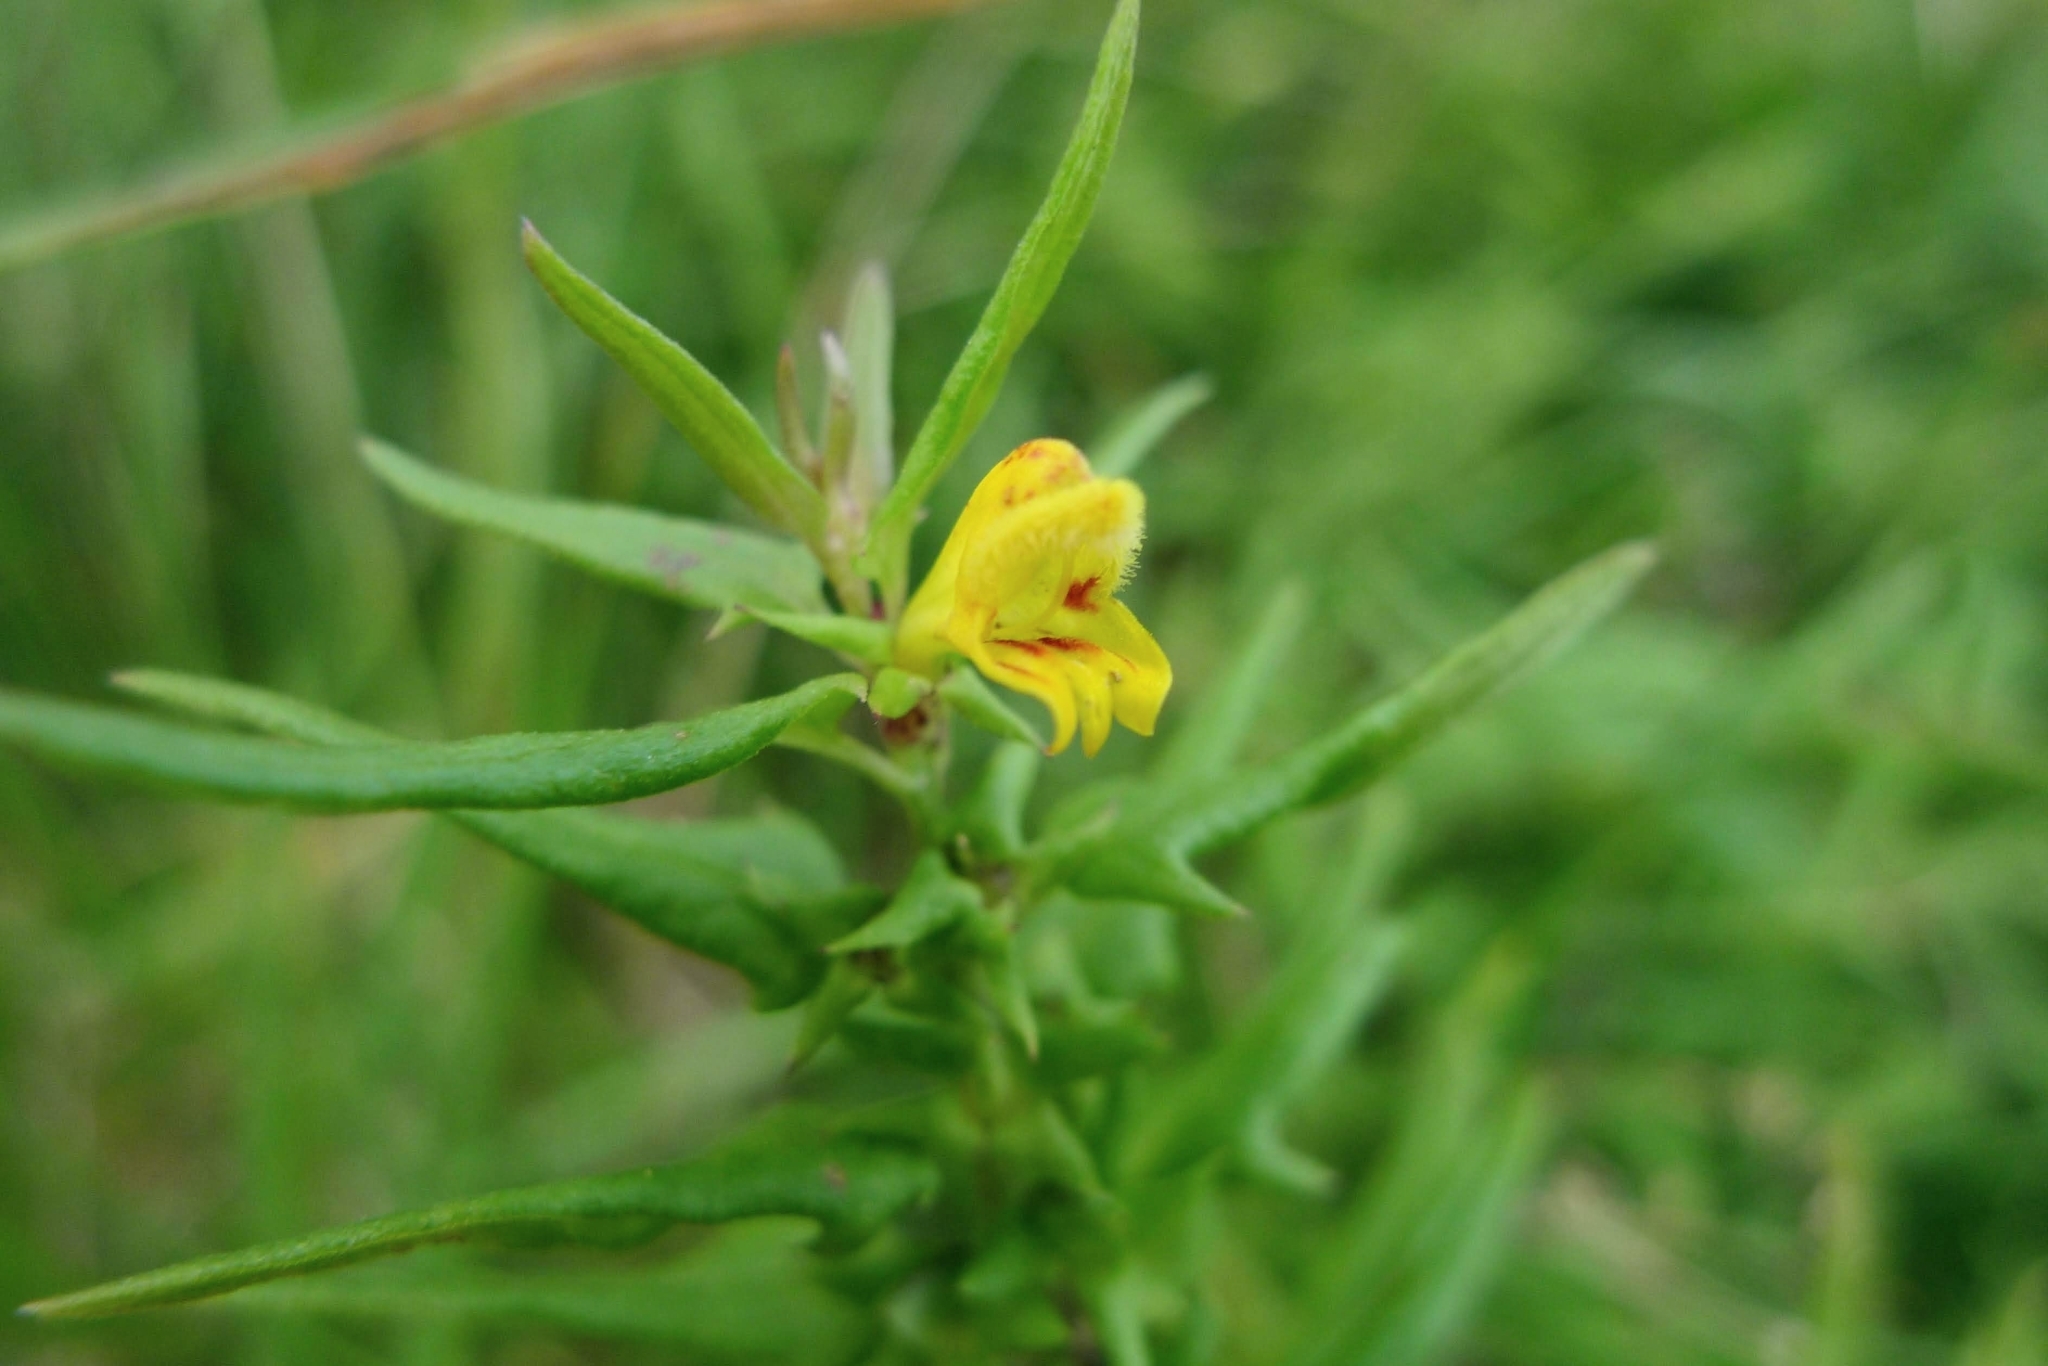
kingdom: Plantae
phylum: Tracheophyta
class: Magnoliopsida
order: Lamiales
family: Orobanchaceae
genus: Melampyrum
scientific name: Melampyrum sylvaticum
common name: Small cow-wheat
